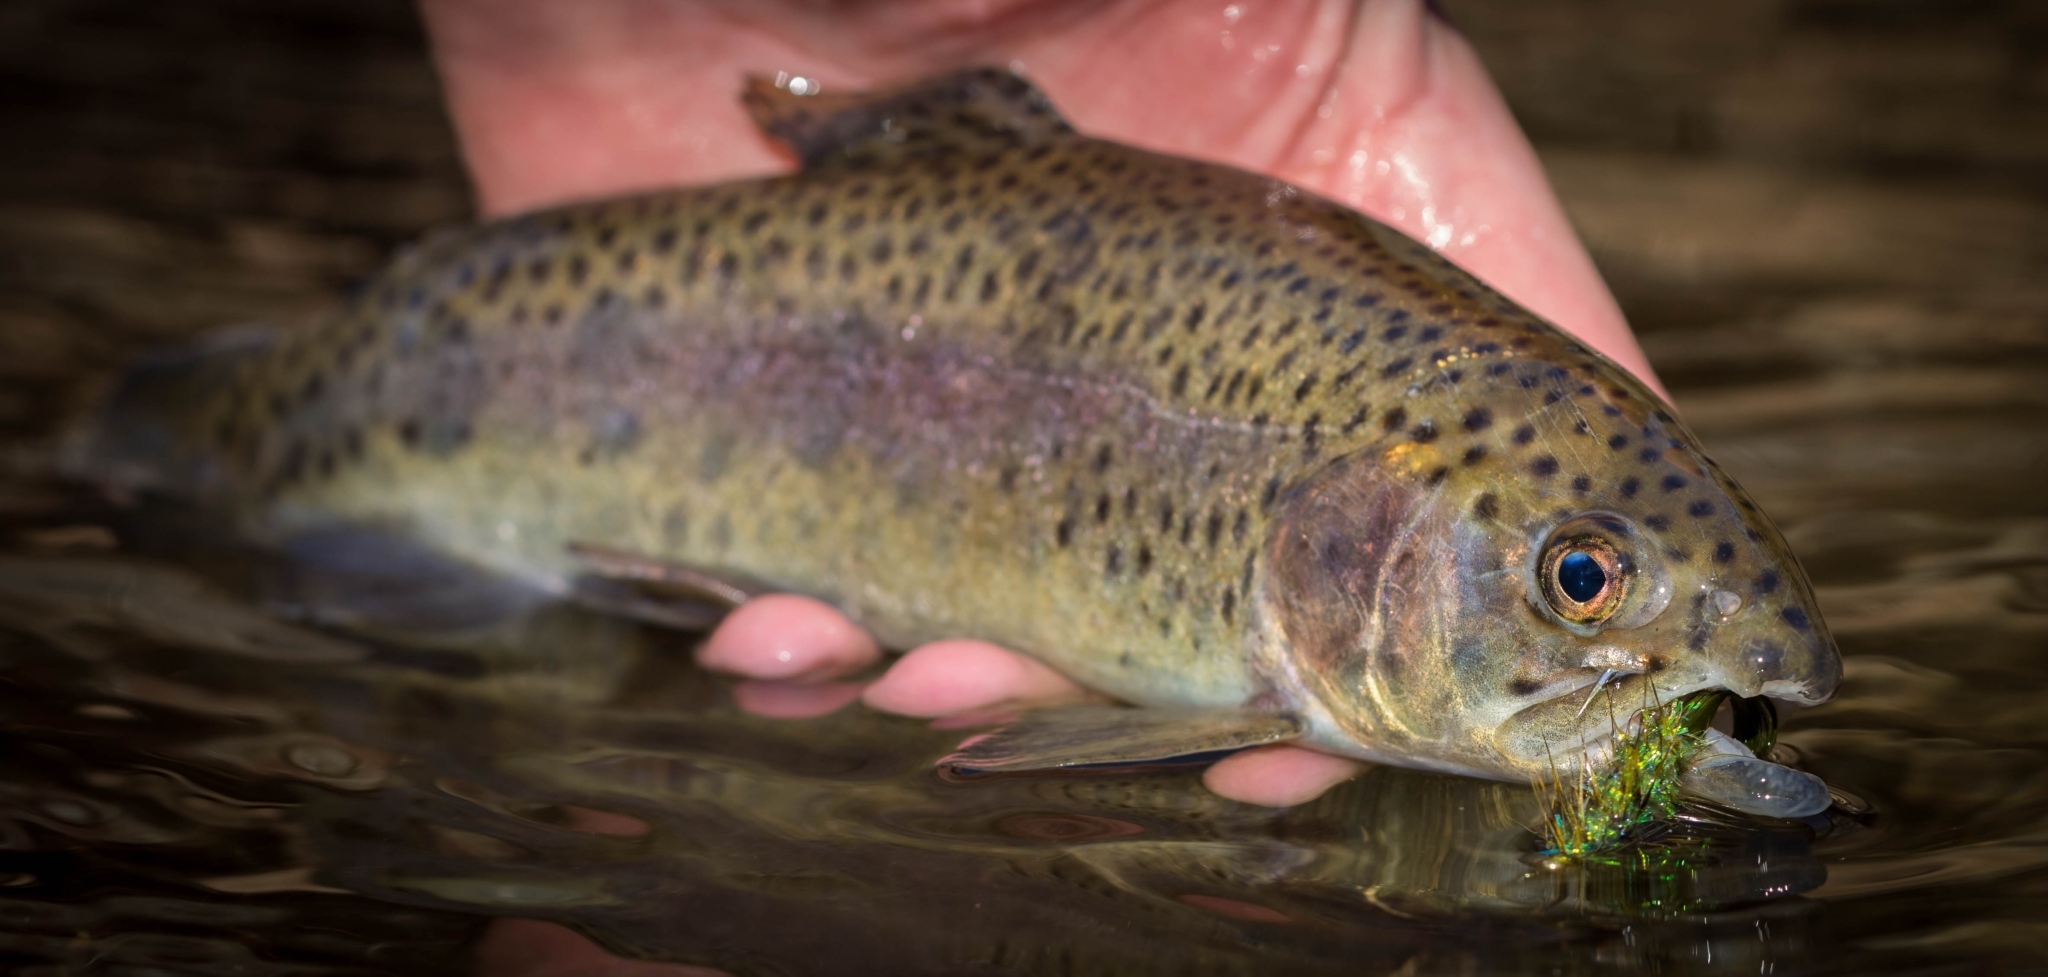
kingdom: Animalia
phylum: Chordata
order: Salmoniformes
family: Salmonidae
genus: Oncorhynchus
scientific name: Oncorhynchus mykiss
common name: Rainbow trout
